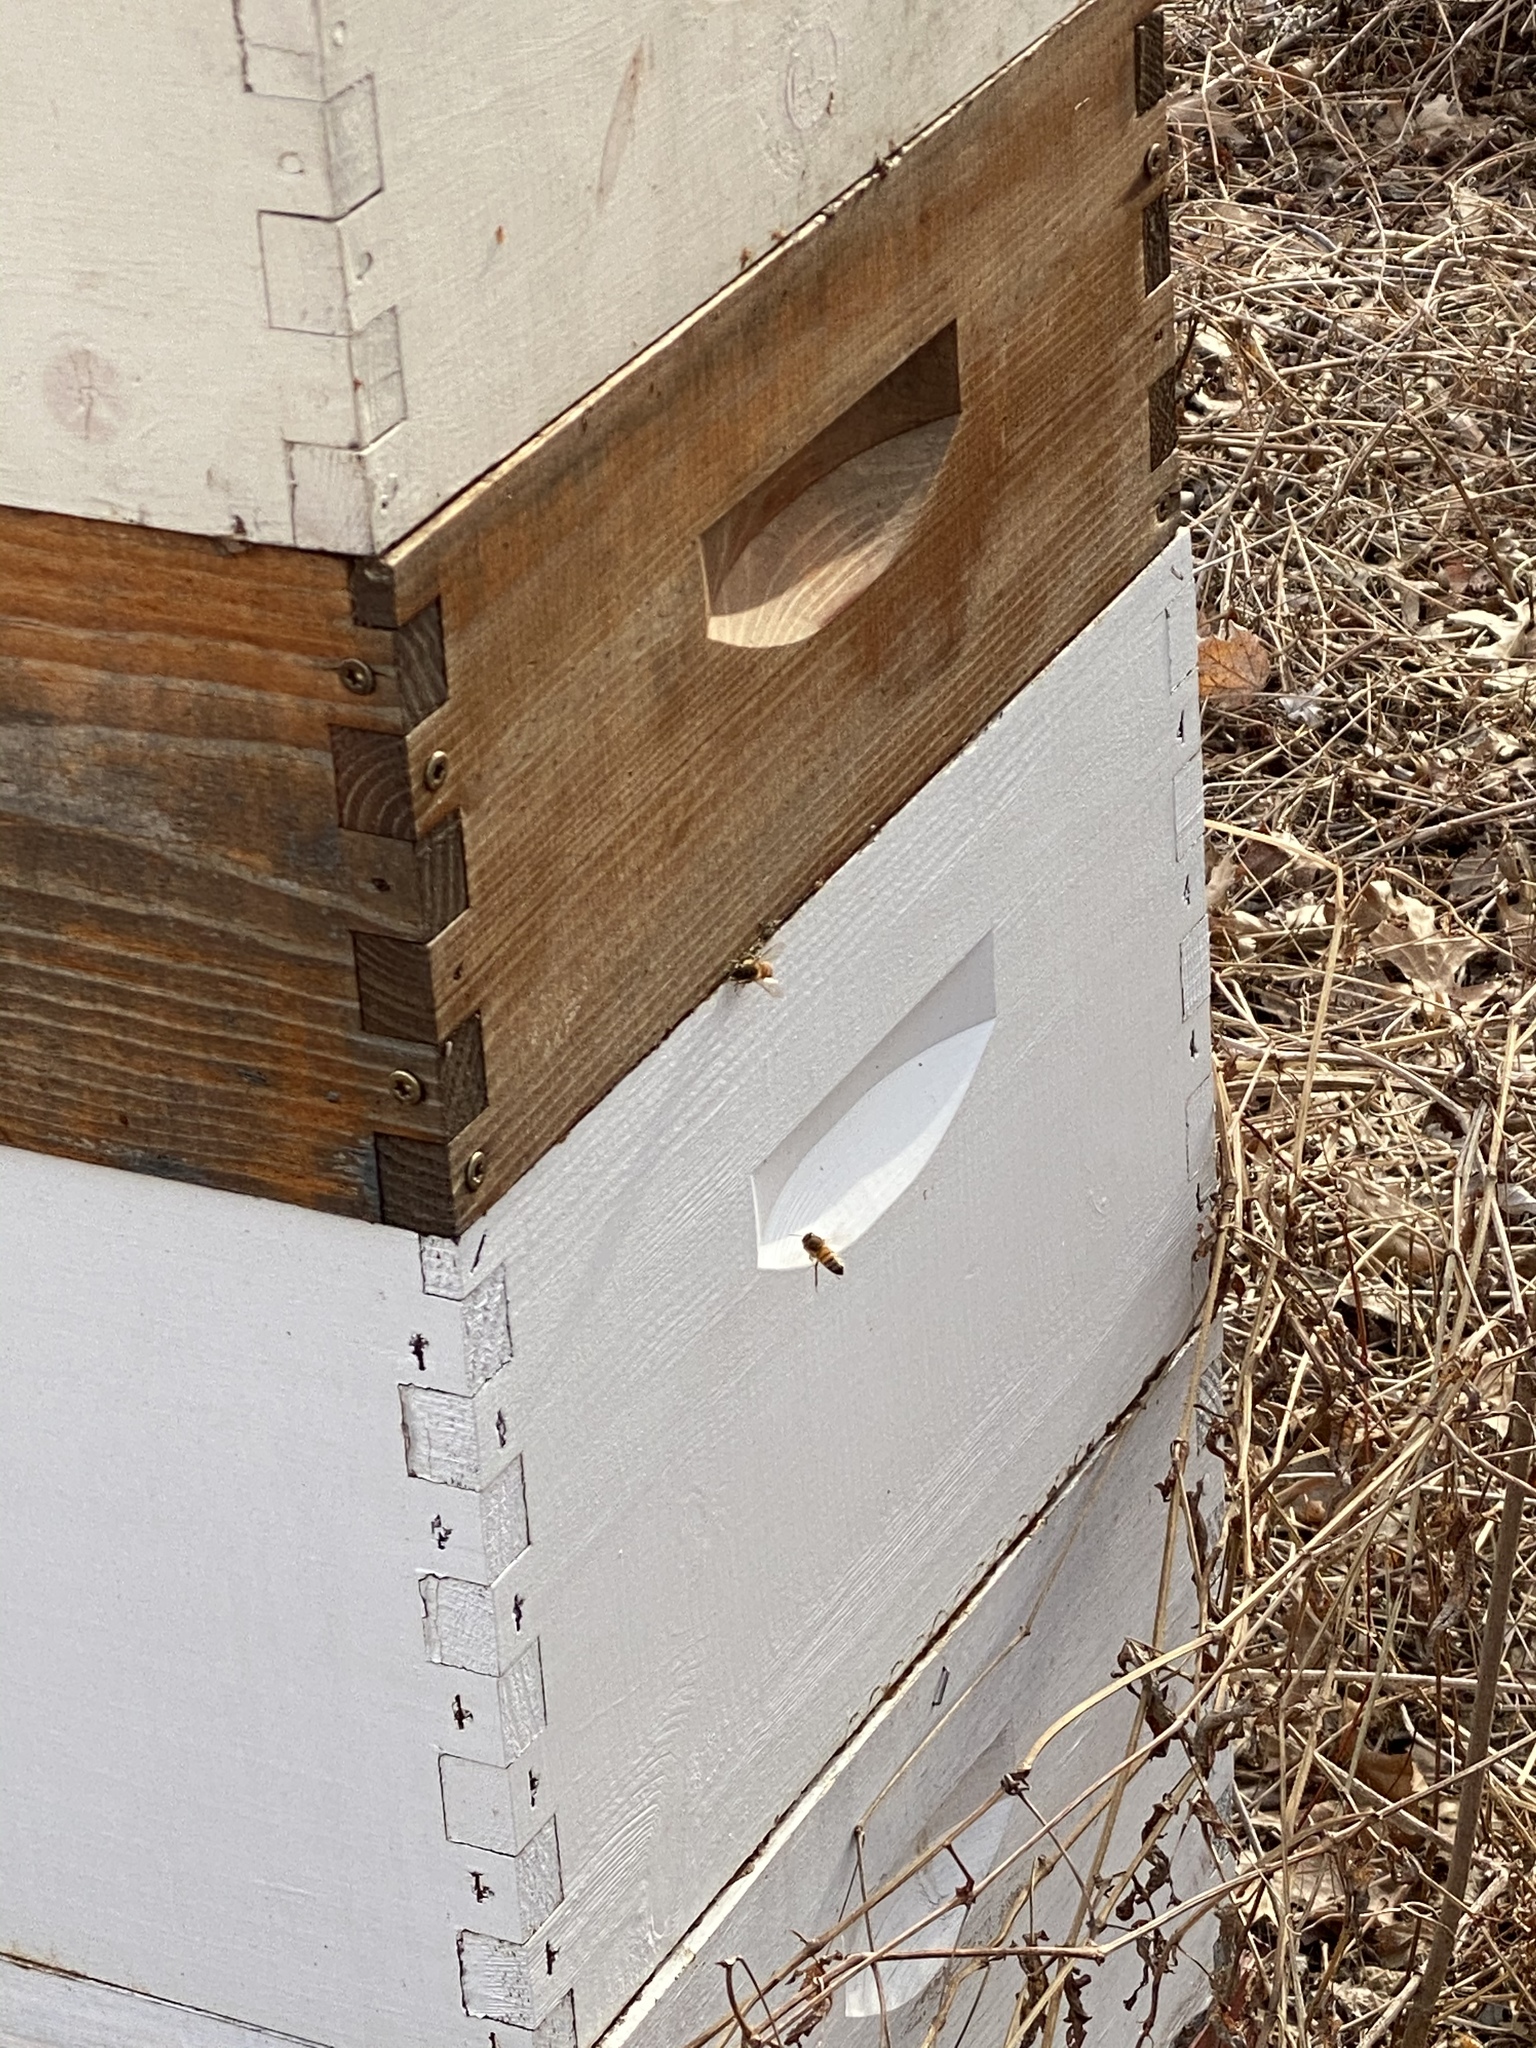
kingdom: Animalia
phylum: Arthropoda
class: Insecta
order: Hymenoptera
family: Apidae
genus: Apis
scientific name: Apis mellifera
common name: Honey bee
